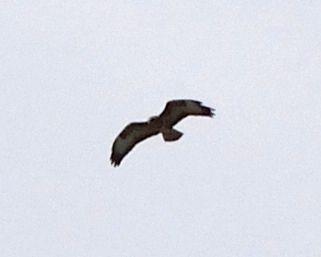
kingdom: Animalia
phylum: Chordata
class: Aves
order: Accipitriformes
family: Accipitridae
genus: Buteo
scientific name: Buteo buteo
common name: Common buzzard
